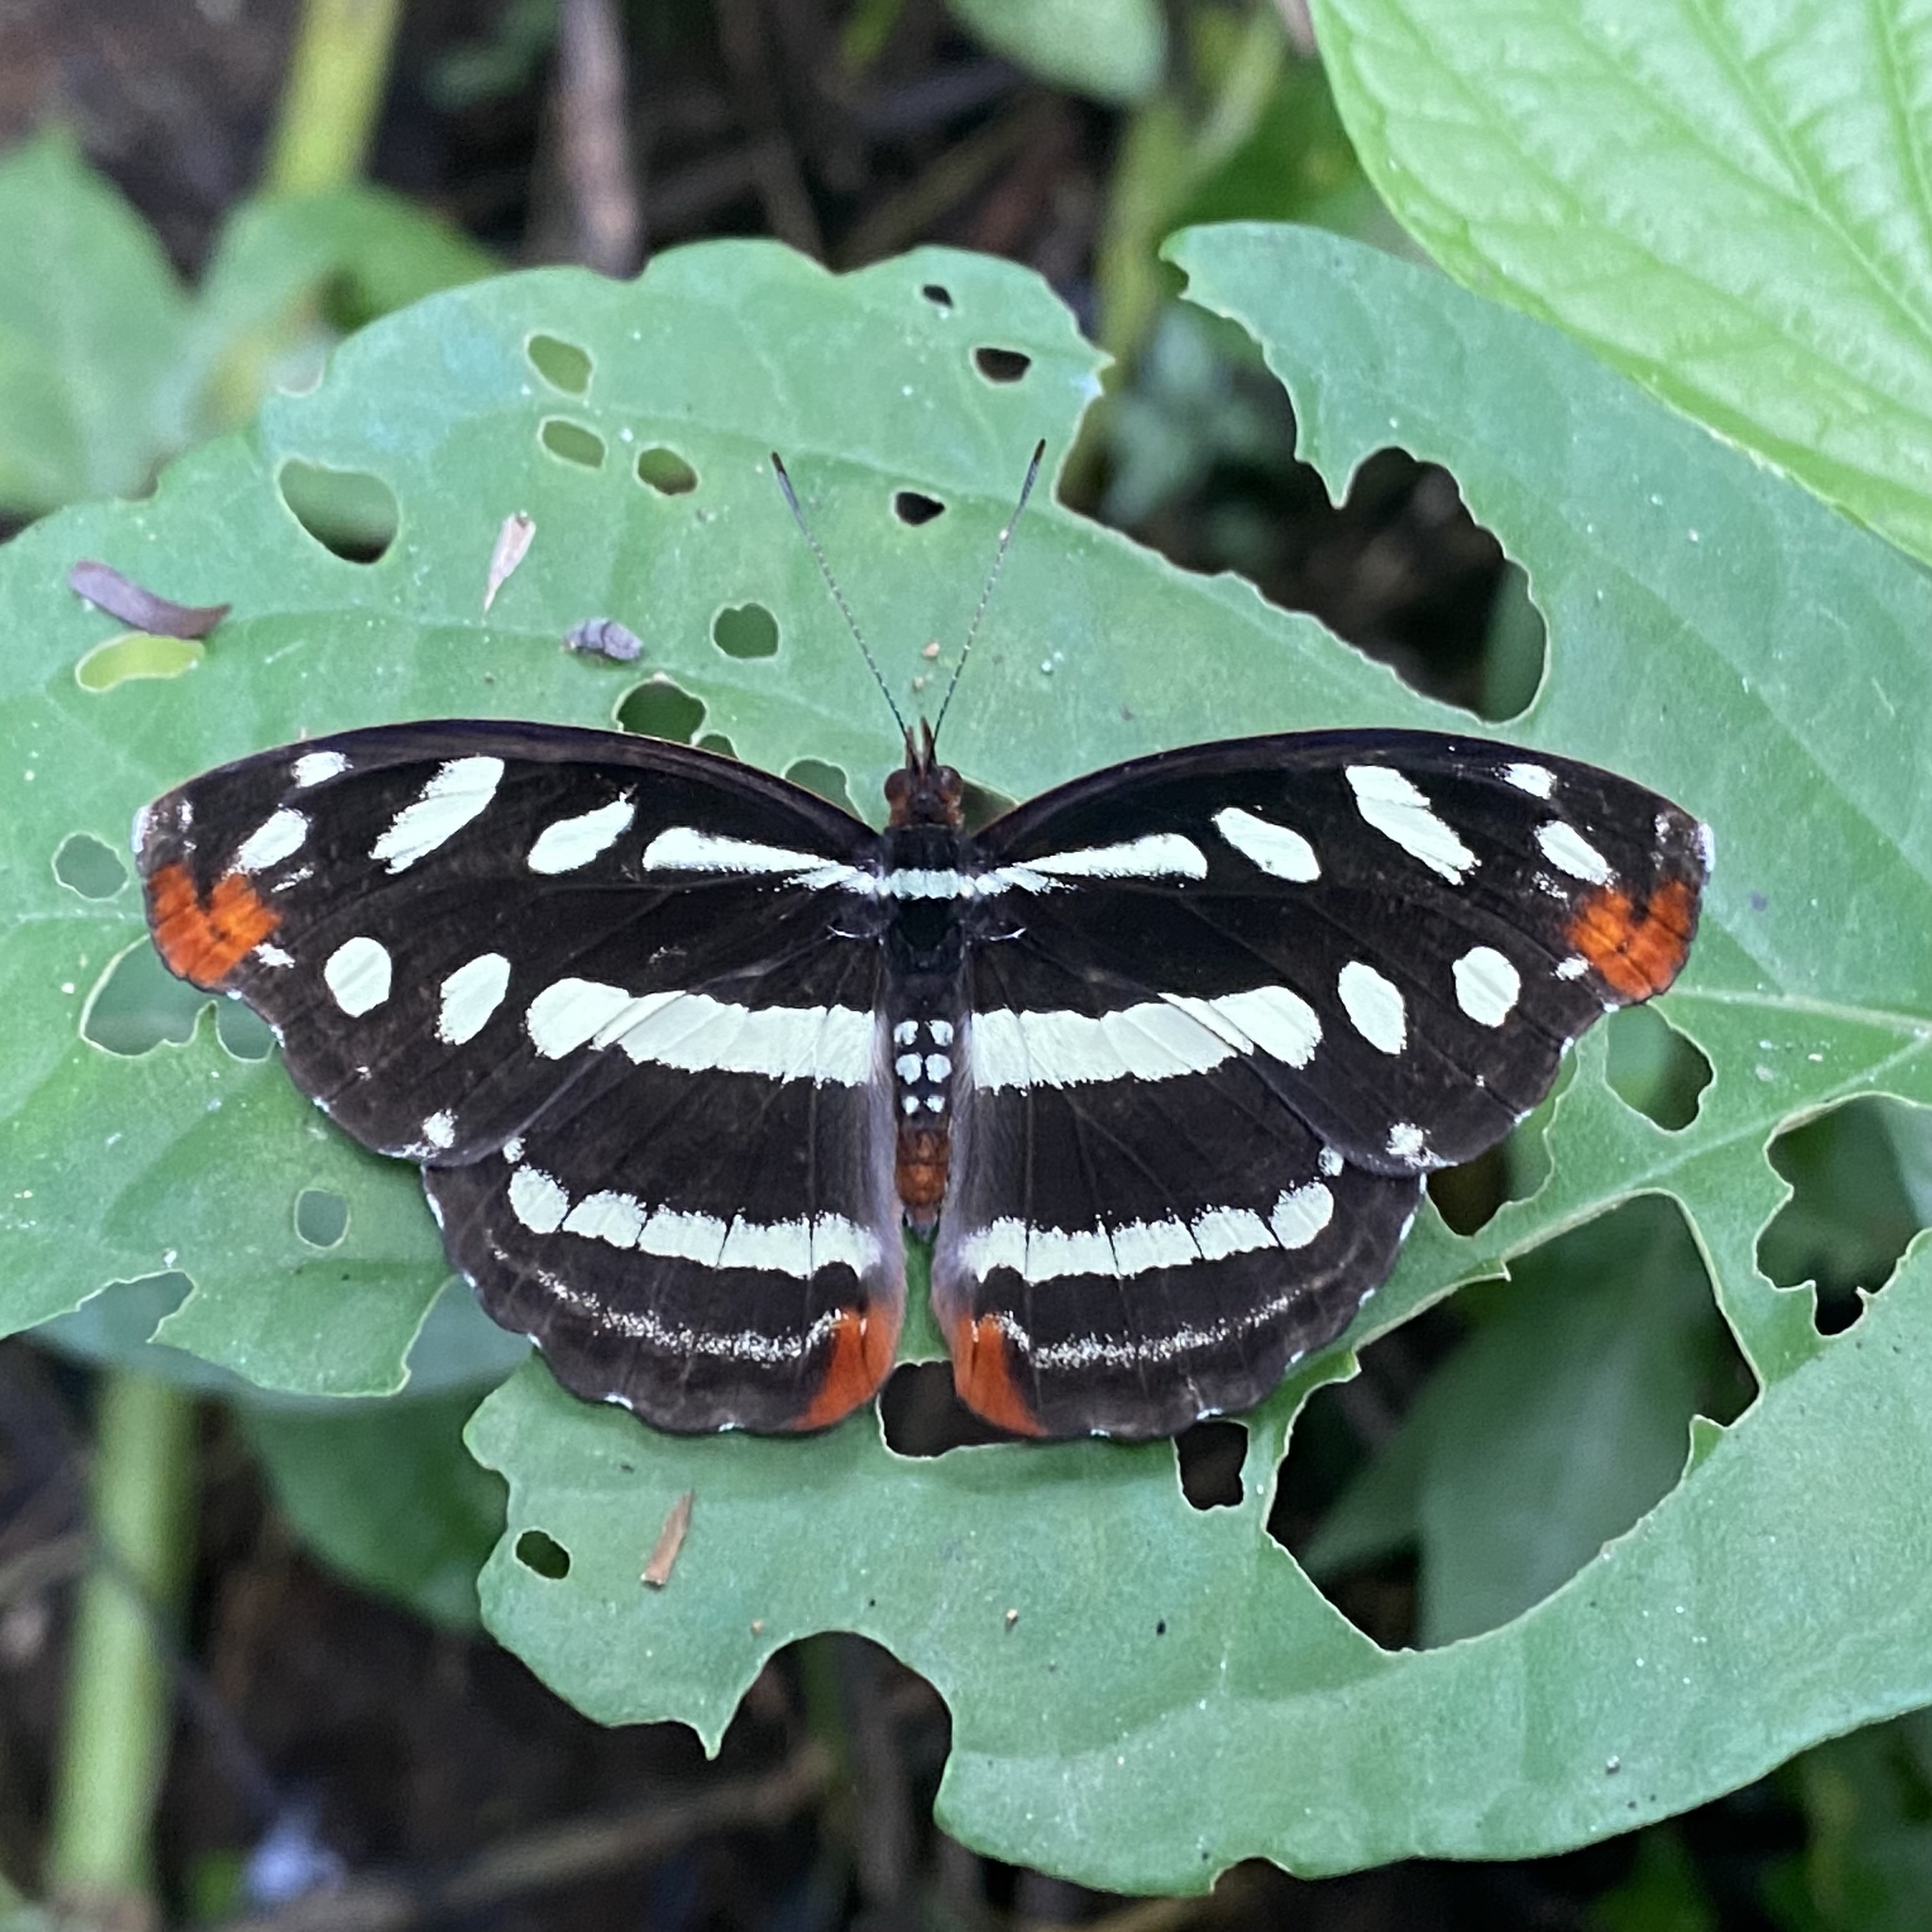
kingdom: Animalia
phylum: Arthropoda
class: Insecta
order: Lepidoptera
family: Nymphalidae
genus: Catonephele
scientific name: Catonephele mexicana
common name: Guatemalan catone
